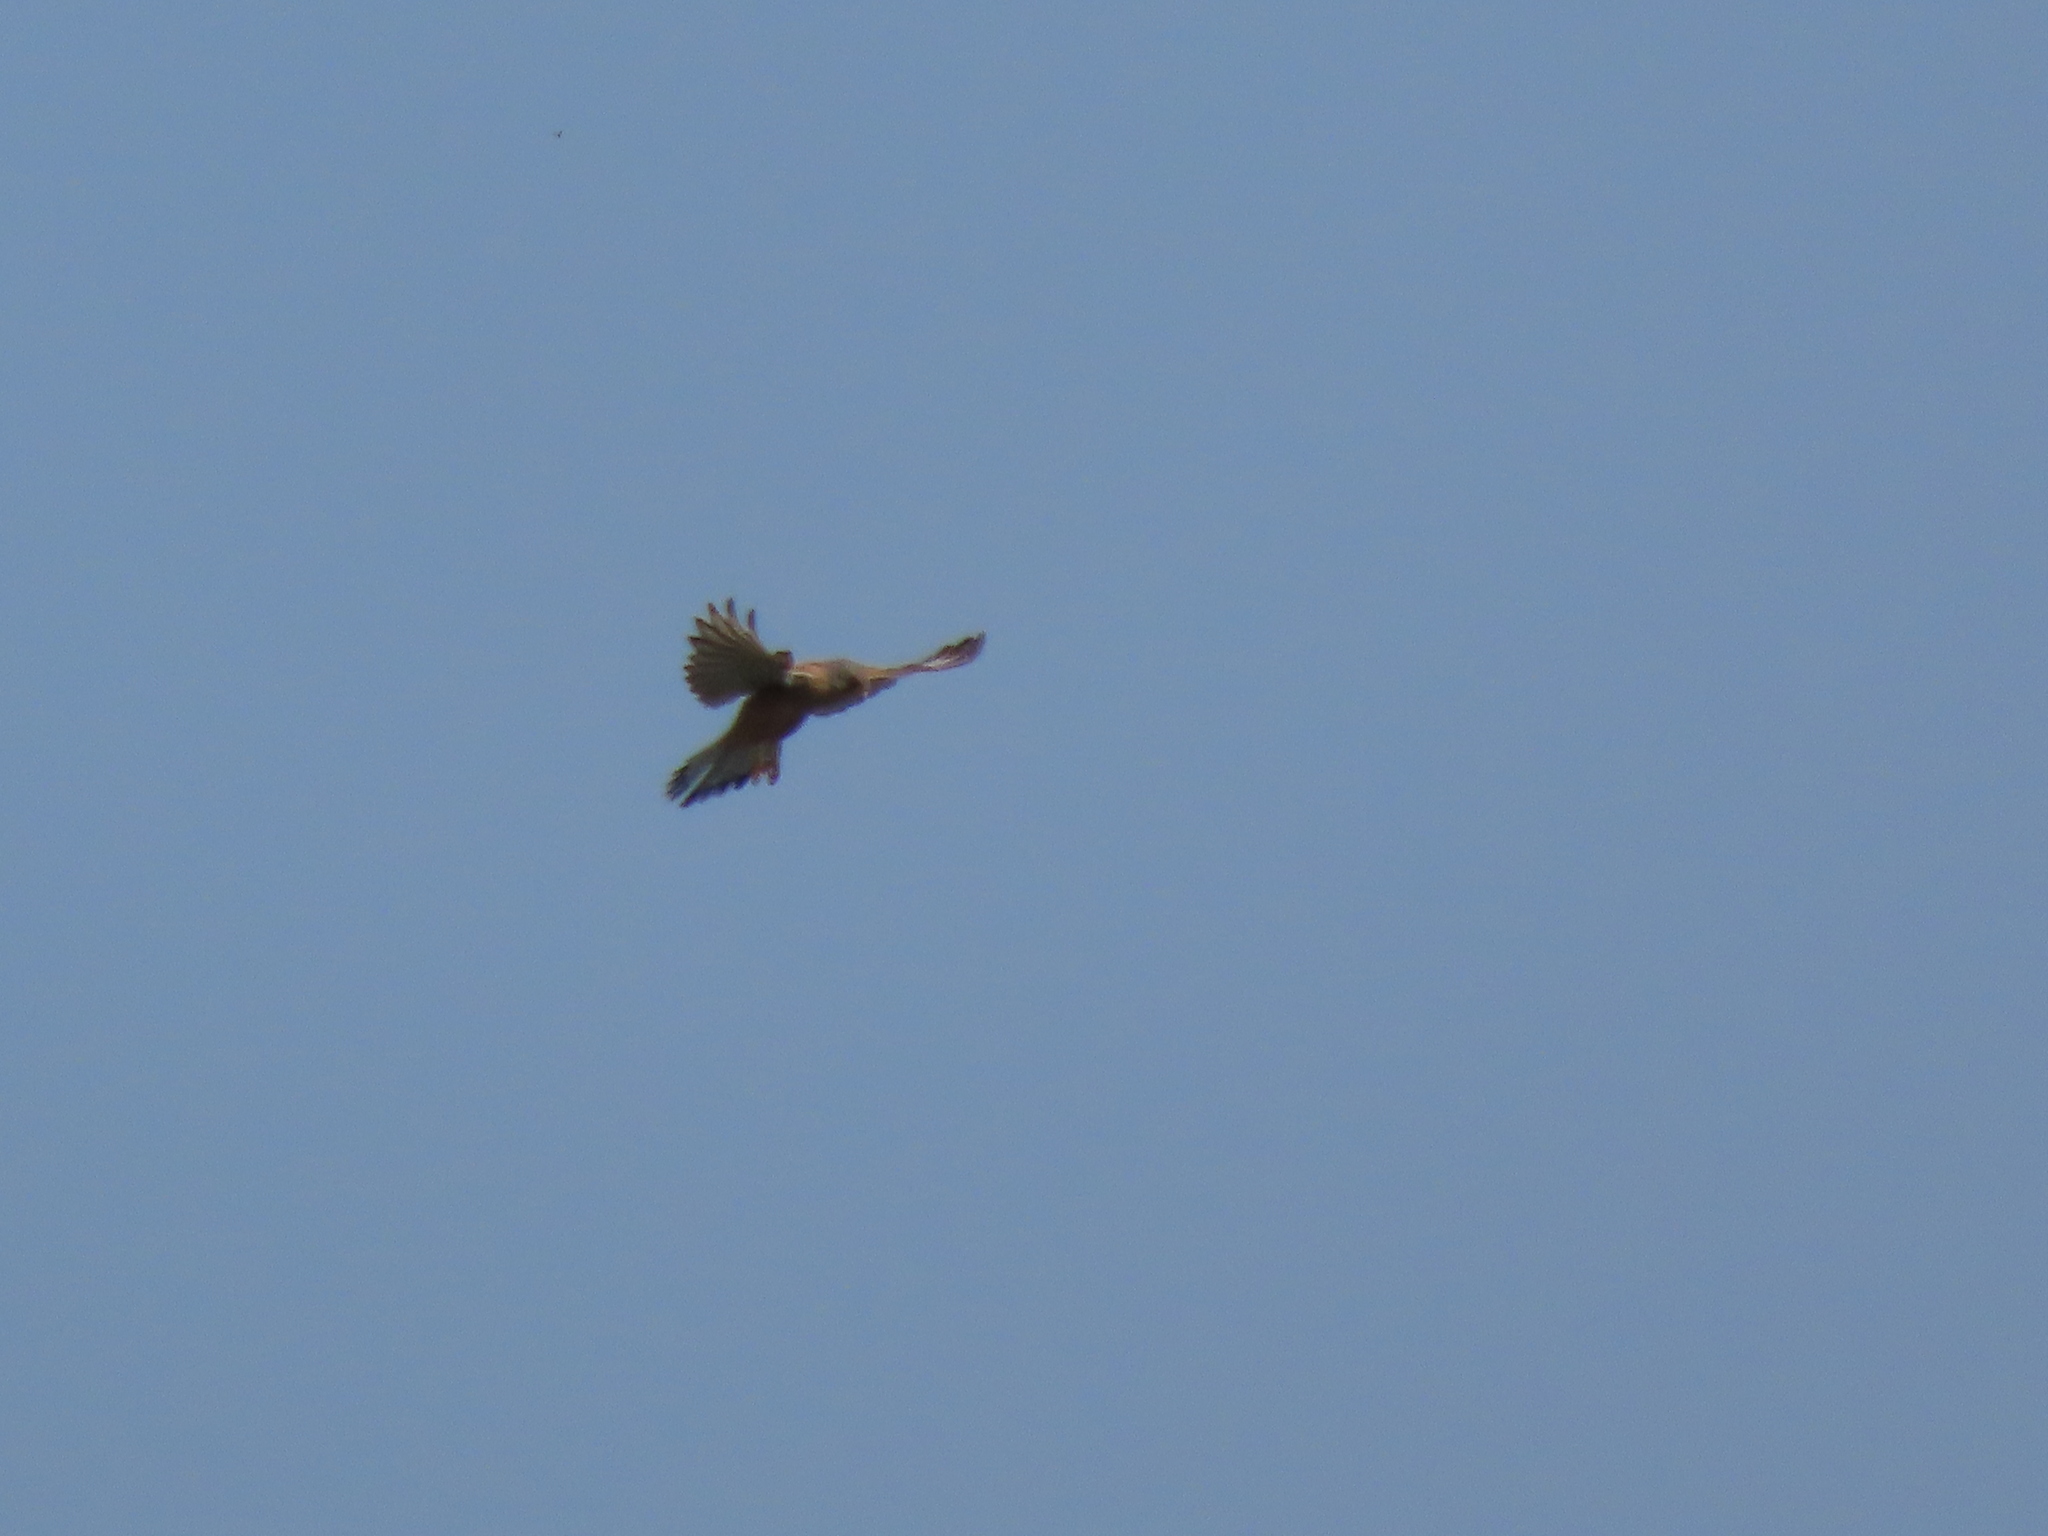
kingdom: Animalia
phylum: Chordata
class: Aves
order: Falconiformes
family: Falconidae
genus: Falco
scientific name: Falco tinnunculus
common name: Common kestrel
